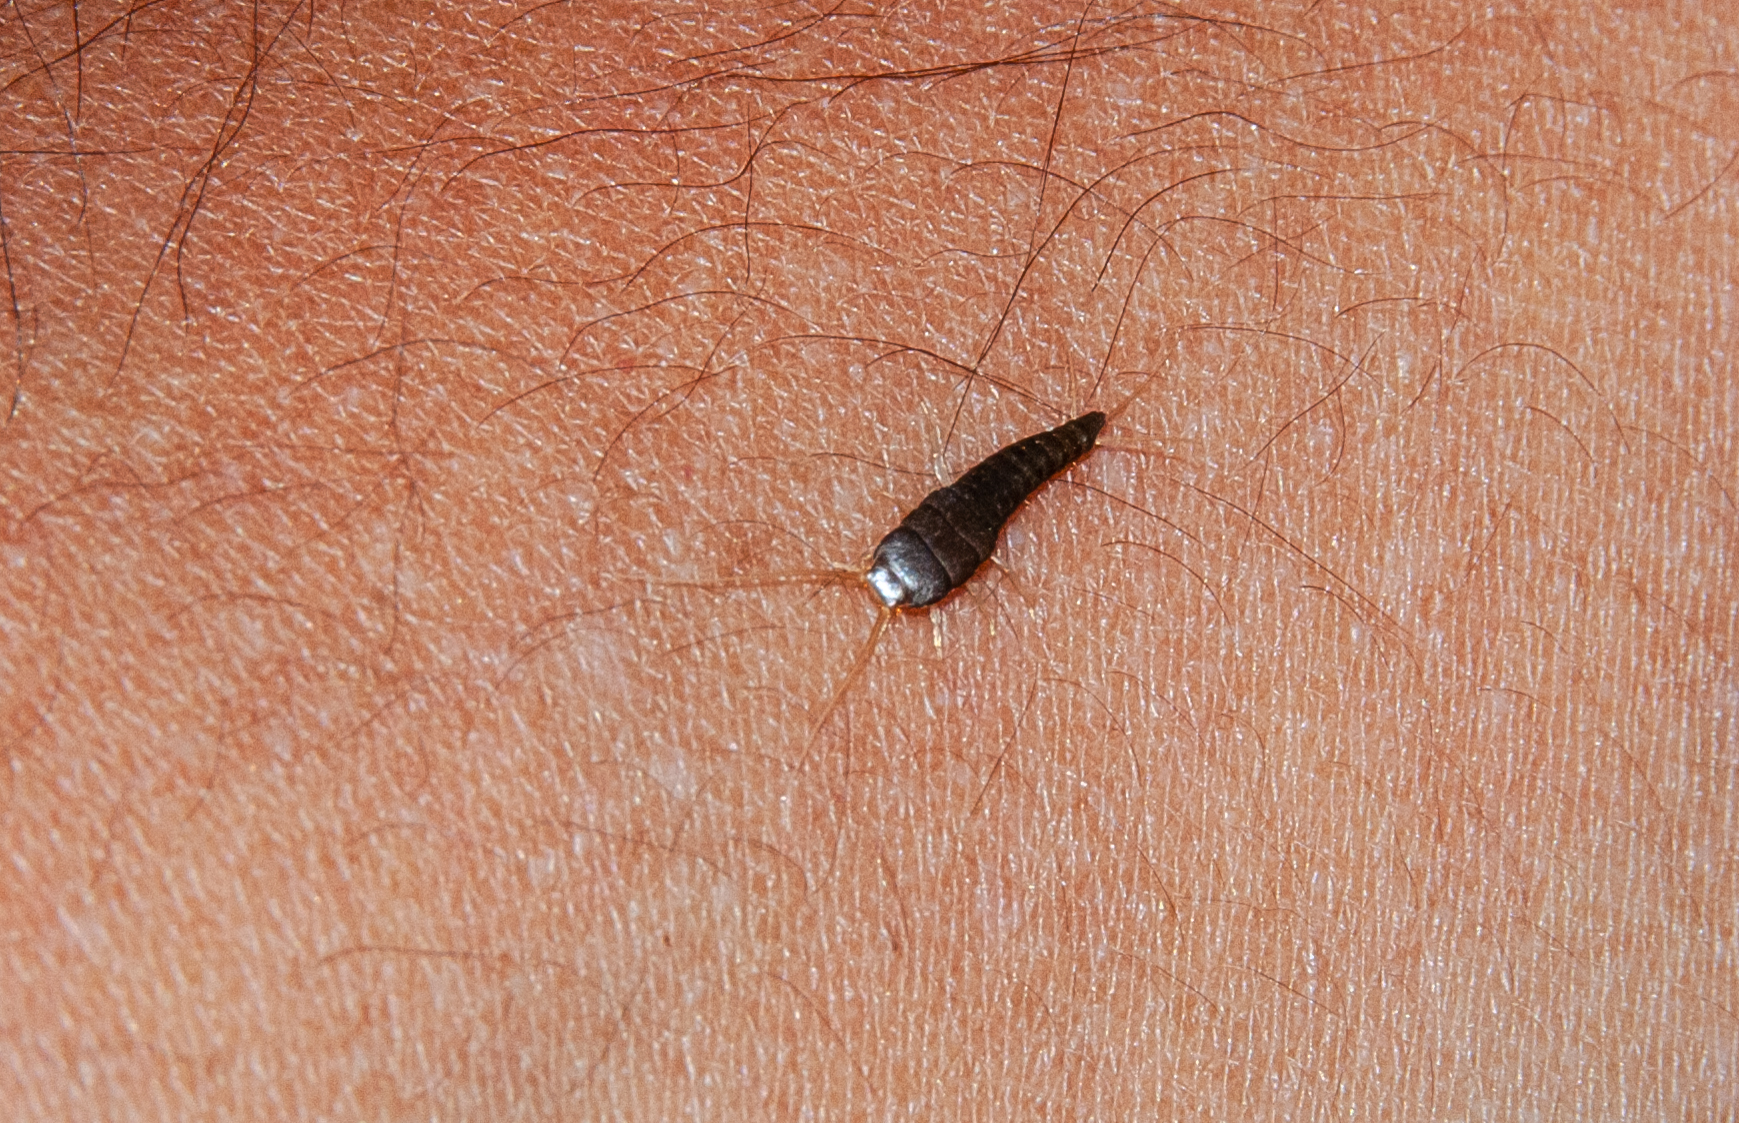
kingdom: Animalia
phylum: Arthropoda
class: Insecta
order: Zygentoma
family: Lepismatidae
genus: Lepisma
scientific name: Lepisma saccharinum
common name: Silverfish
